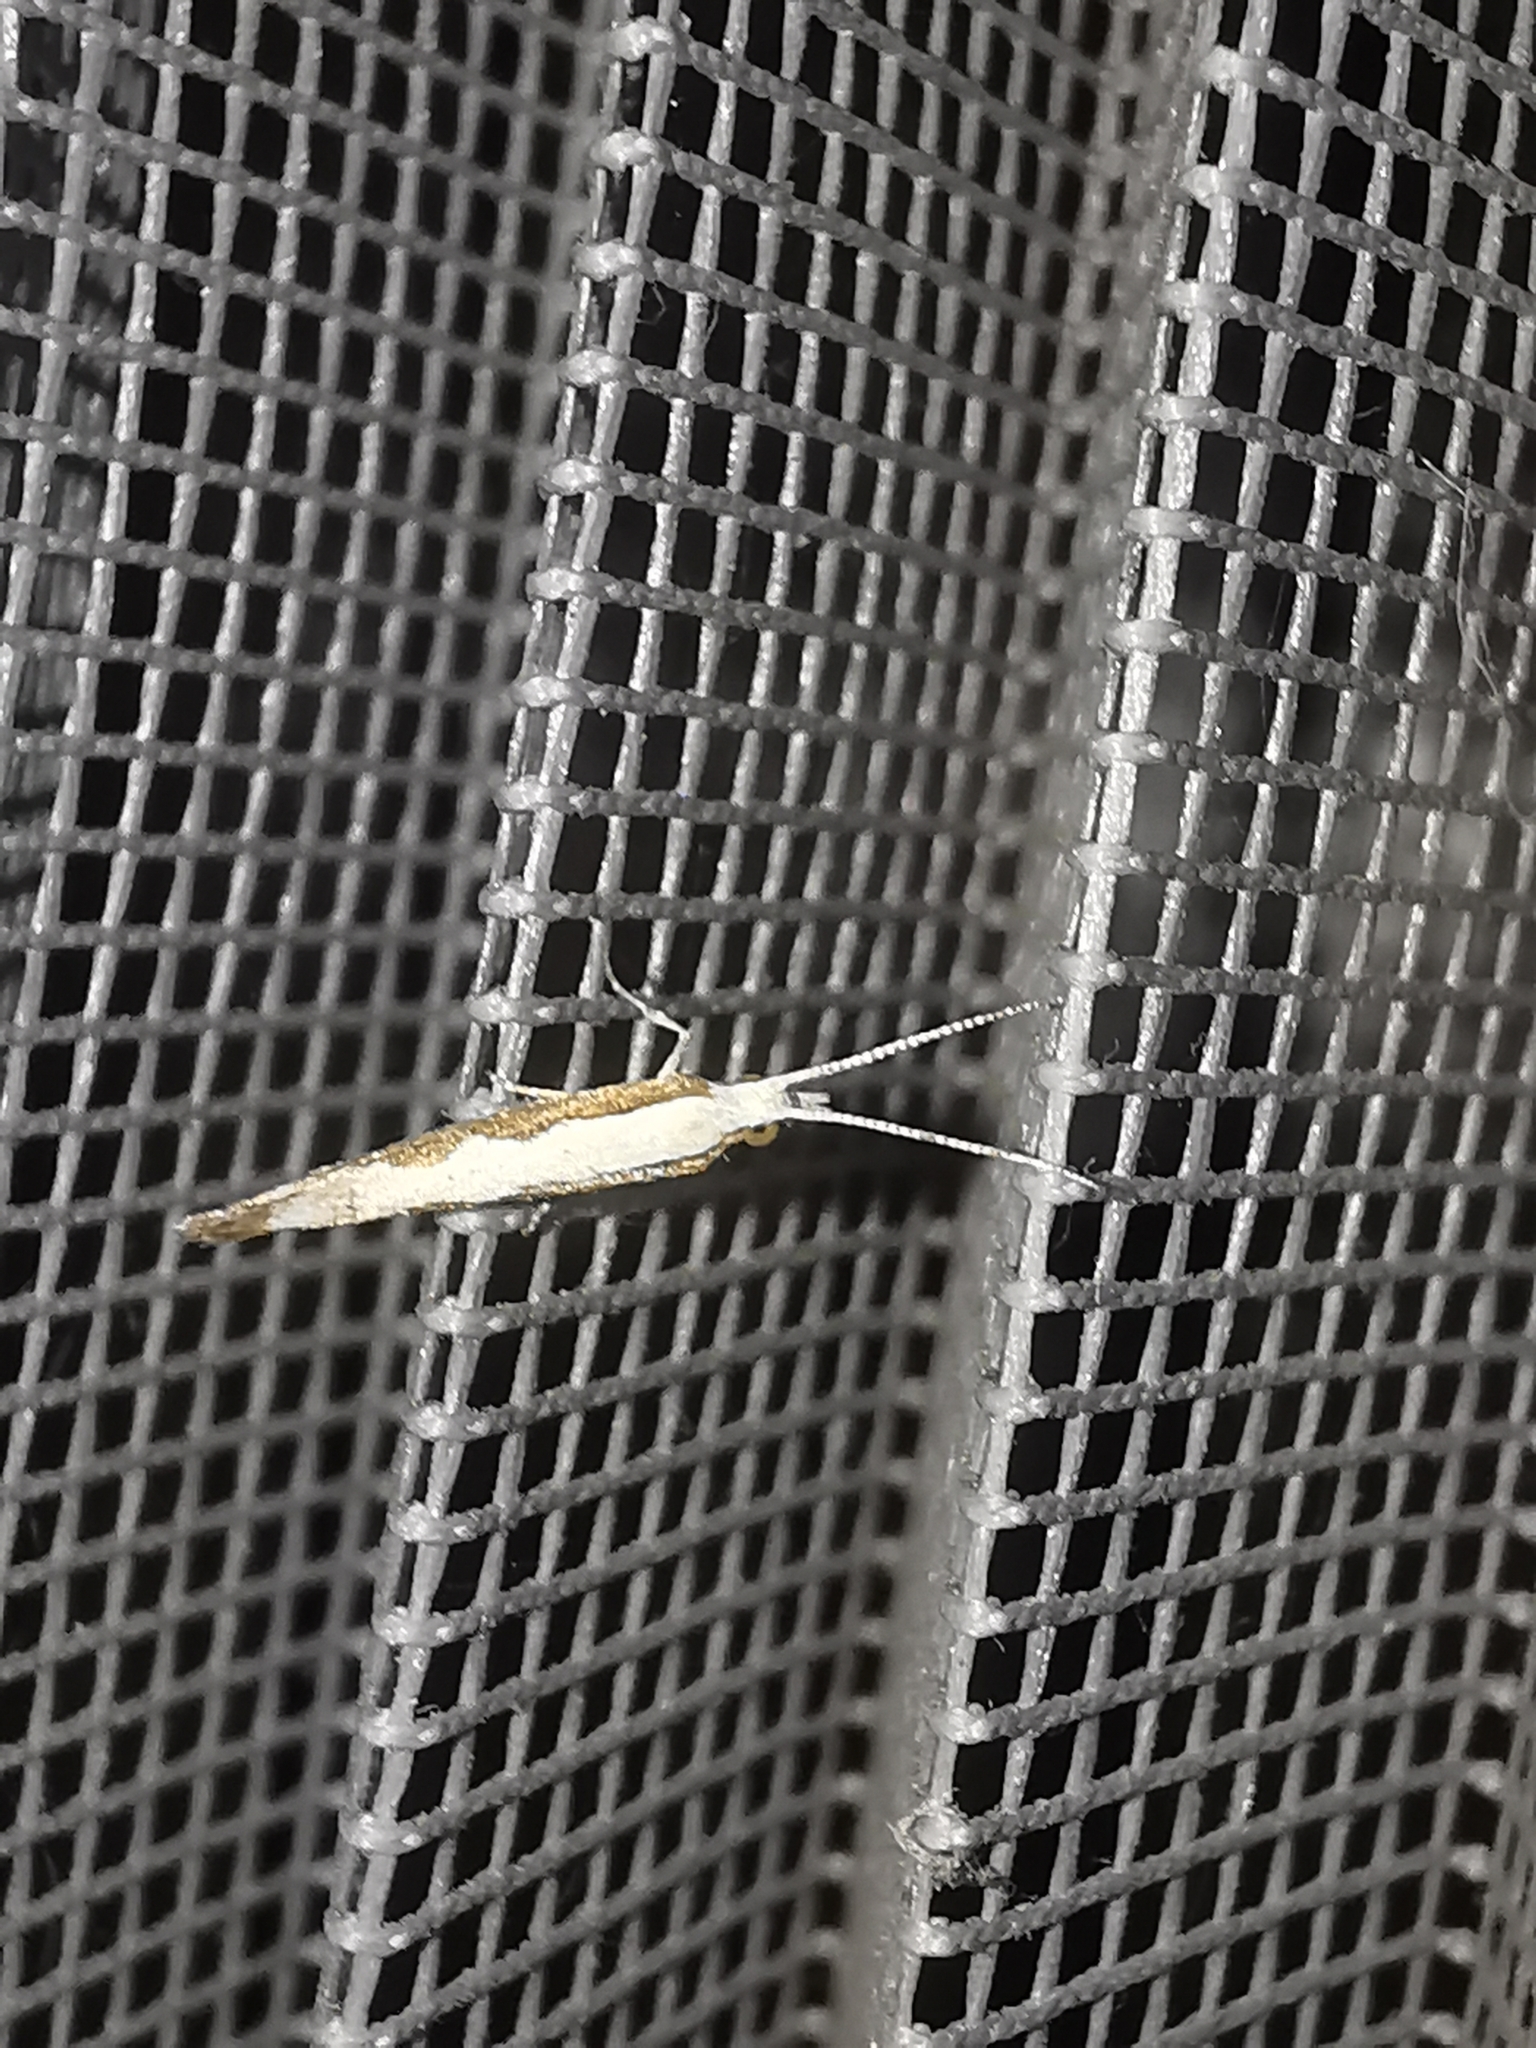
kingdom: Animalia
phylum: Arthropoda
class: Insecta
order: Lepidoptera
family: Plutellidae
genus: Plutella
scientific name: Plutella xylostella
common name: Diamond-back moth
